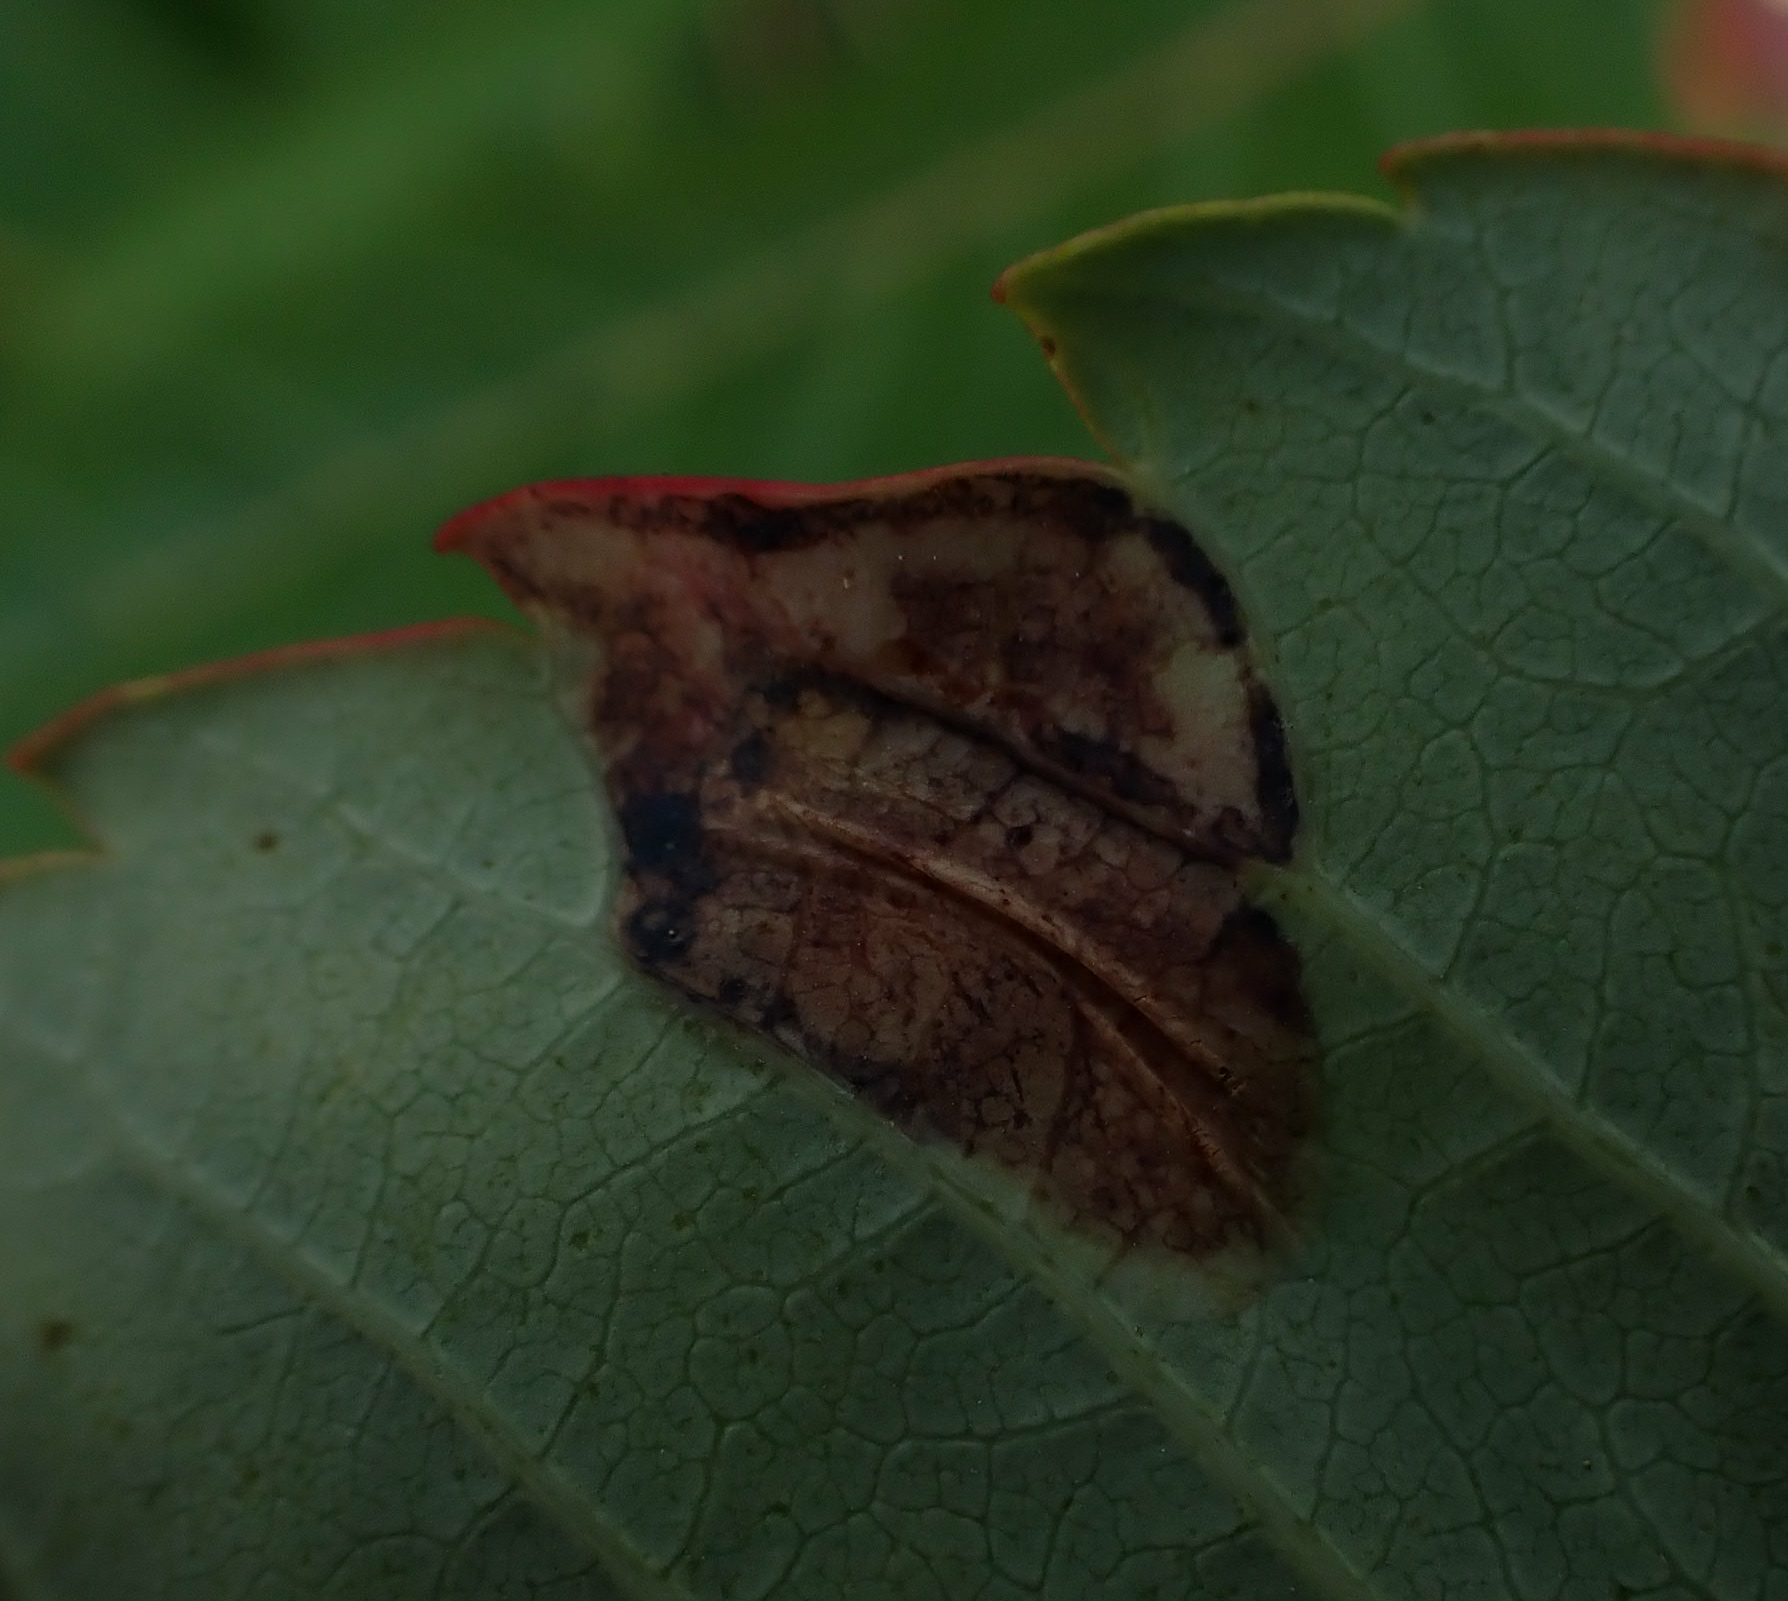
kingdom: Animalia
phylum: Arthropoda
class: Insecta
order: Lepidoptera
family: Gracillariidae
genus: Caloptilia
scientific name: Caloptilia rhoifoliella
